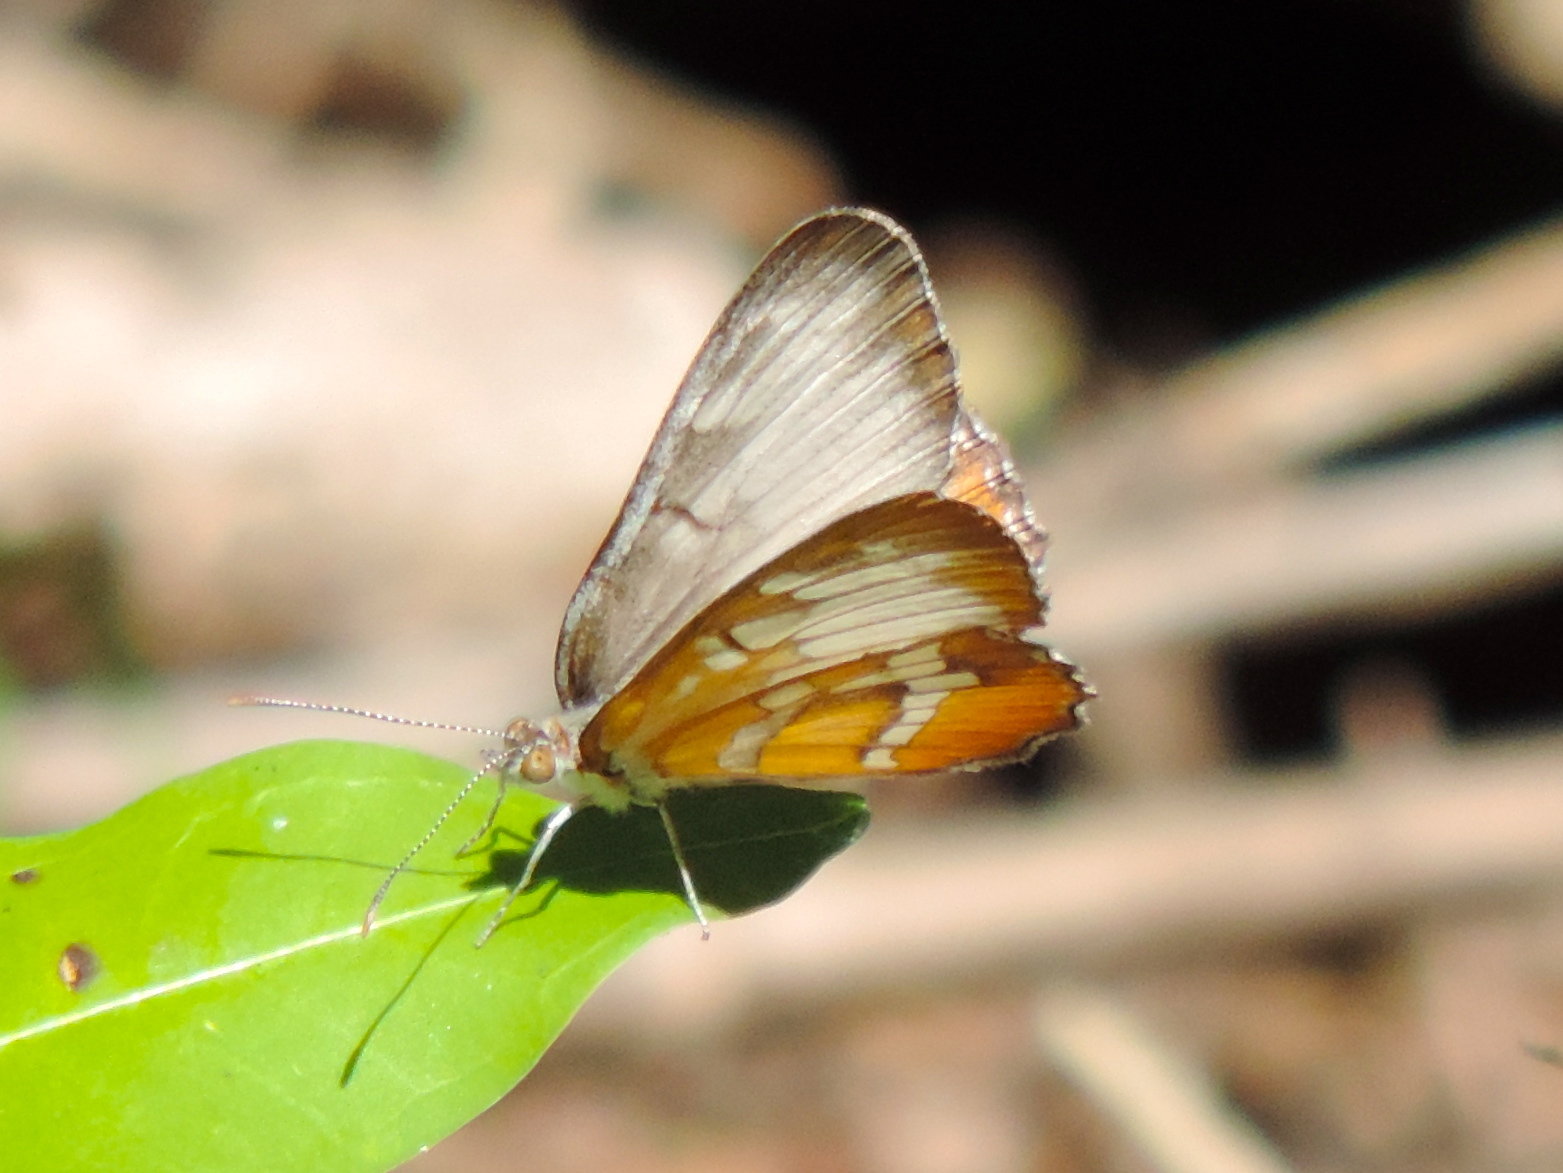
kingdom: Animalia
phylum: Arthropoda
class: Insecta
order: Lepidoptera
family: Nymphalidae
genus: Mestra
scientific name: Mestra amymone
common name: Common mestra
